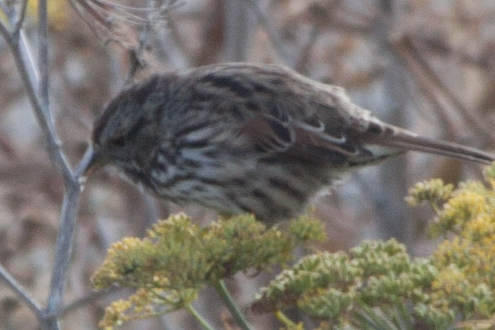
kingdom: Animalia
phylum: Chordata
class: Aves
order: Passeriformes
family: Passerellidae
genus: Melospiza
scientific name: Melospiza melodia
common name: Song sparrow
